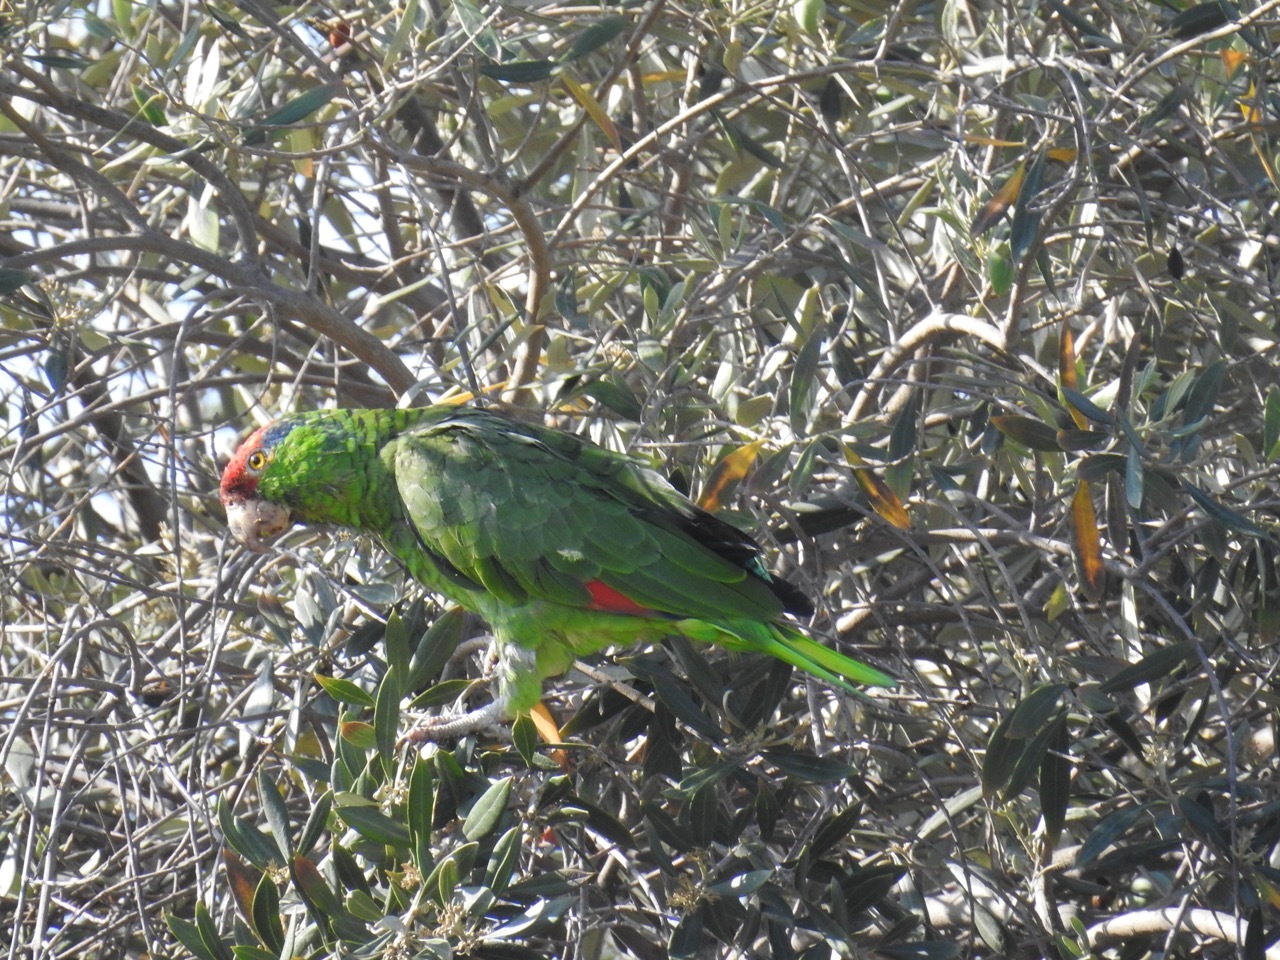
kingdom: Animalia
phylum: Chordata
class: Aves
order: Psittaciformes
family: Psittacidae
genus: Amazona
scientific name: Amazona viridigenalis
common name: Red-crowned amazon
